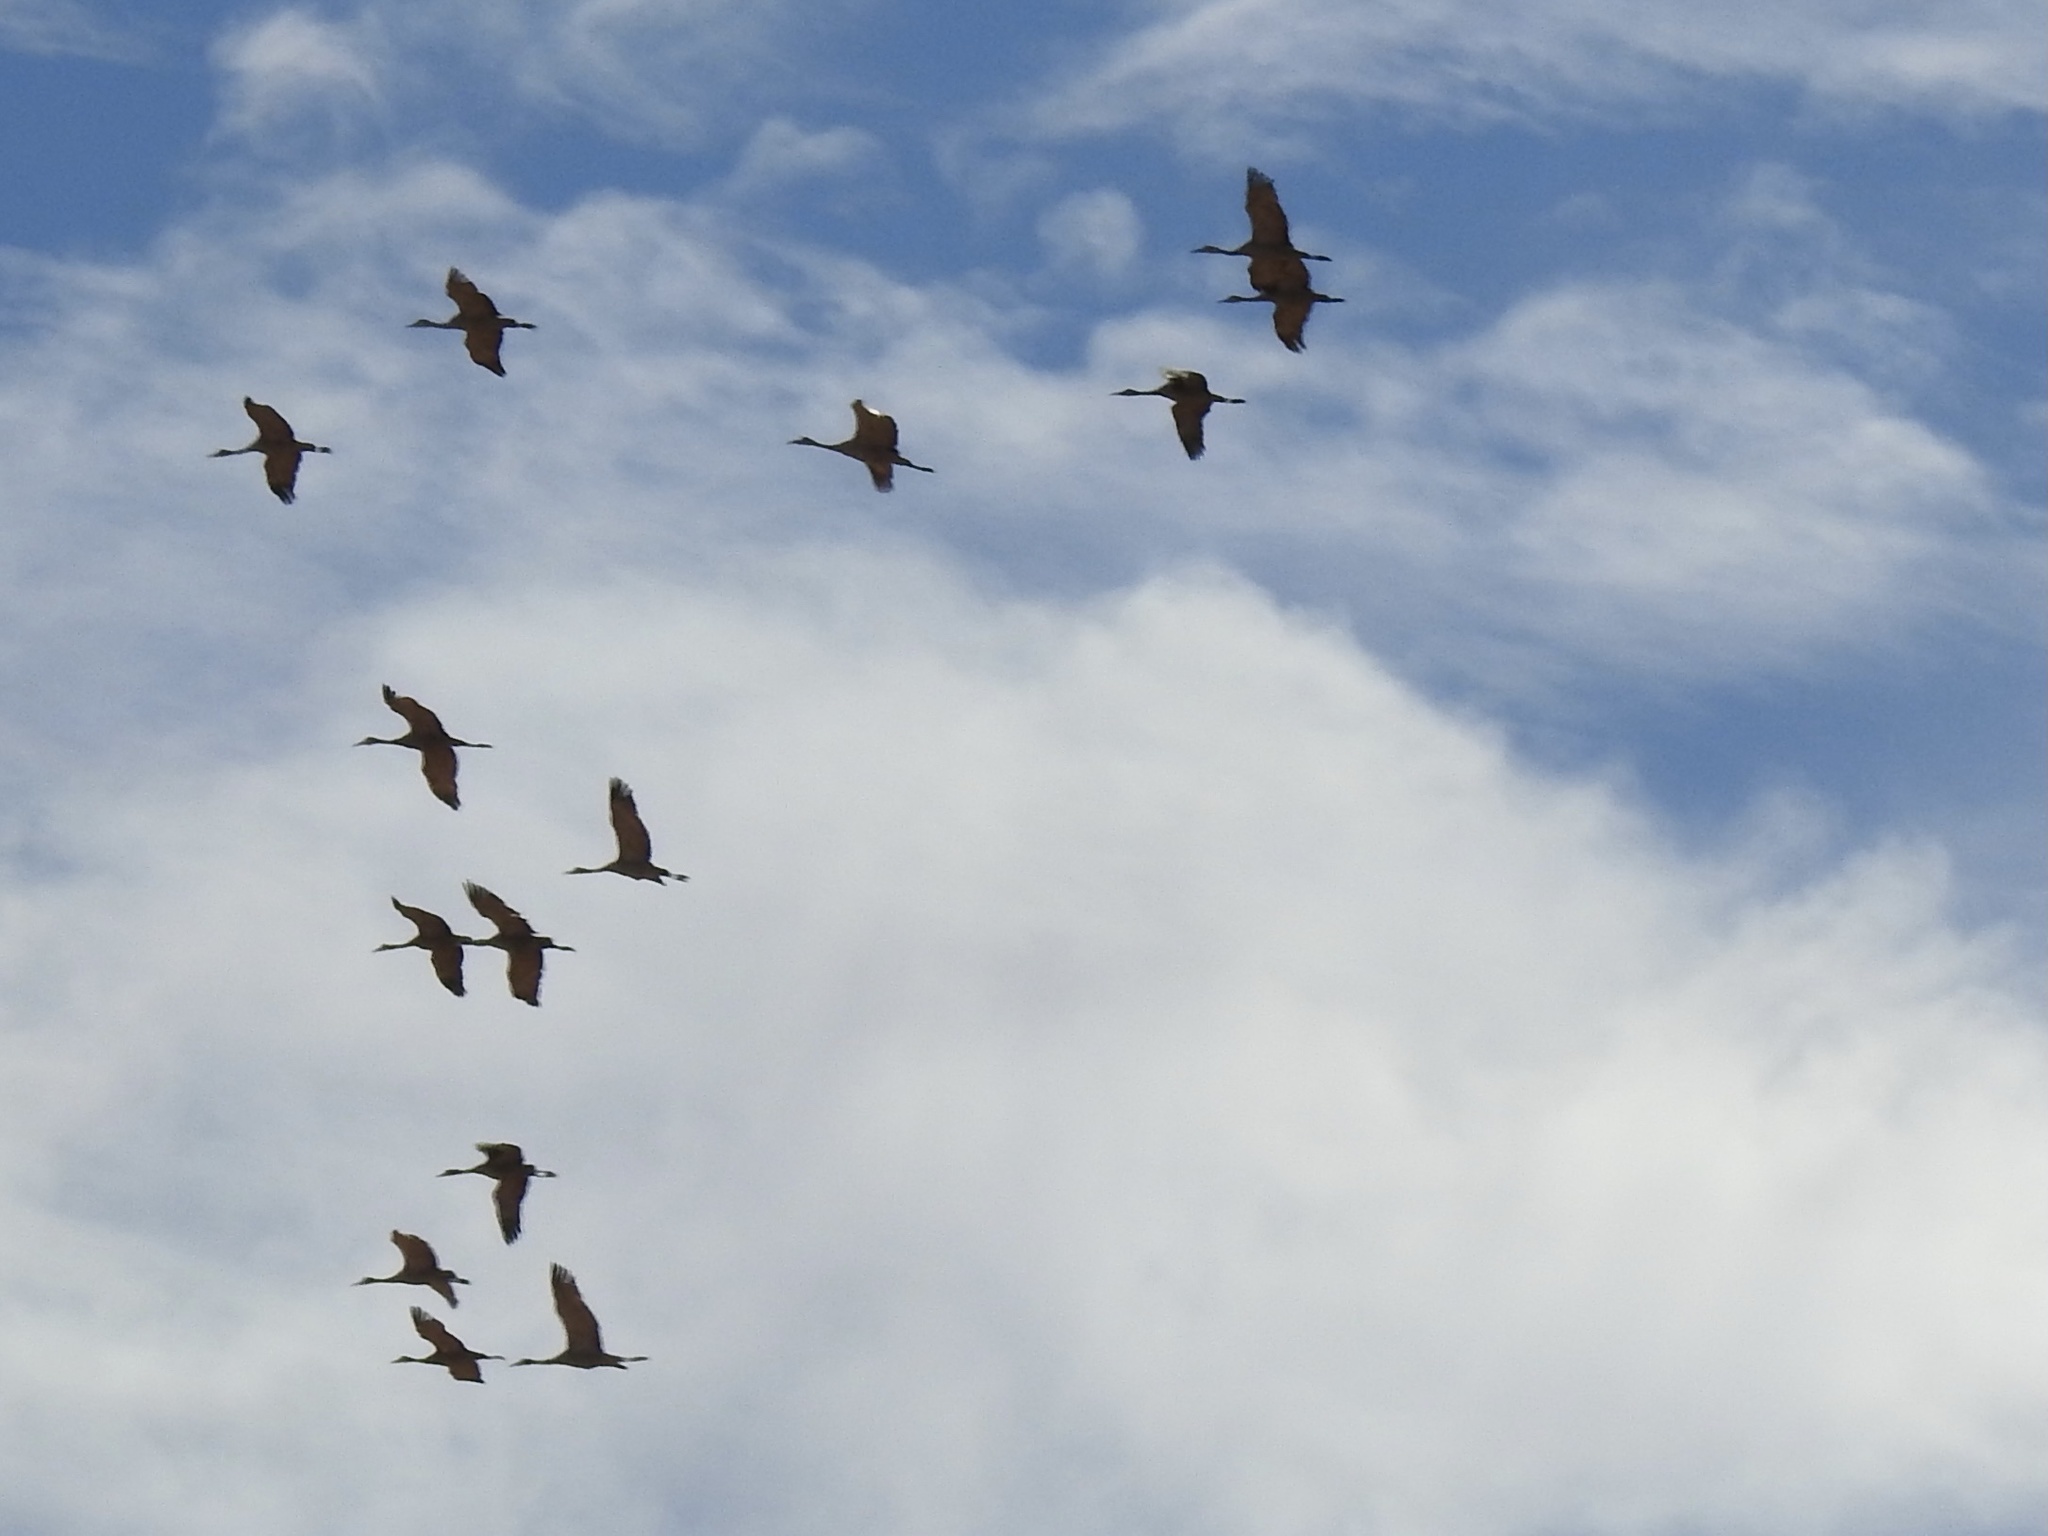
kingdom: Animalia
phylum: Chordata
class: Aves
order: Gruiformes
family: Gruidae
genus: Grus
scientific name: Grus canadensis
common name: Sandhill crane
